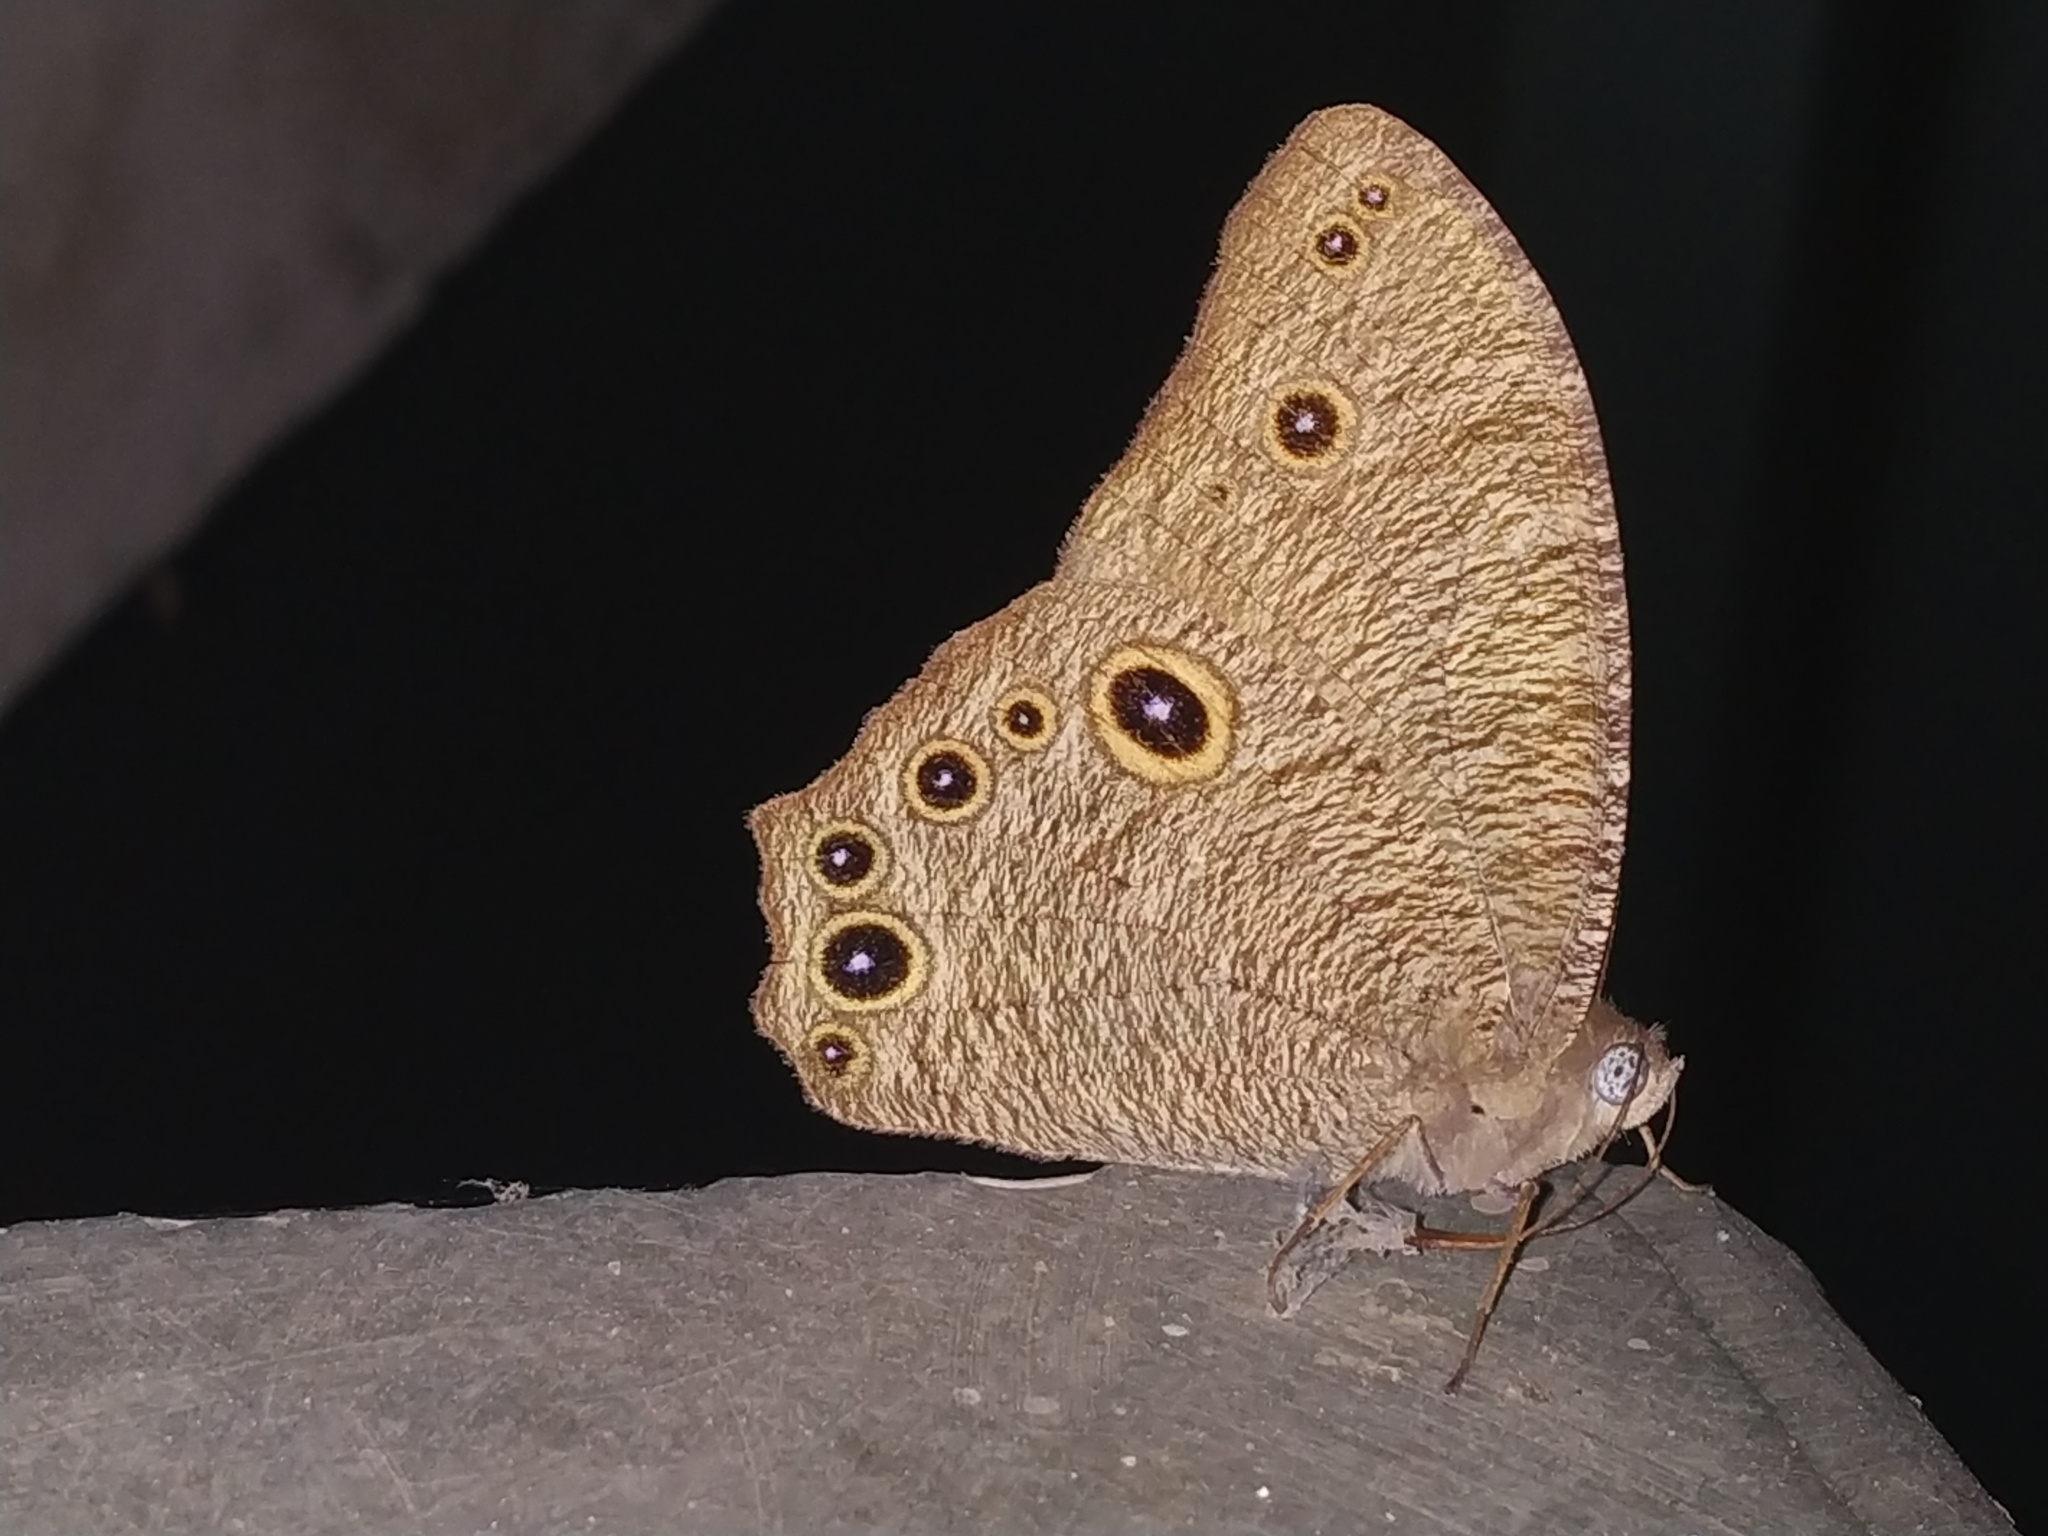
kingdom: Animalia
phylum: Arthropoda
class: Insecta
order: Lepidoptera
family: Nymphalidae
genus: Melanitis
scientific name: Melanitis leda
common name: Twilight brown
